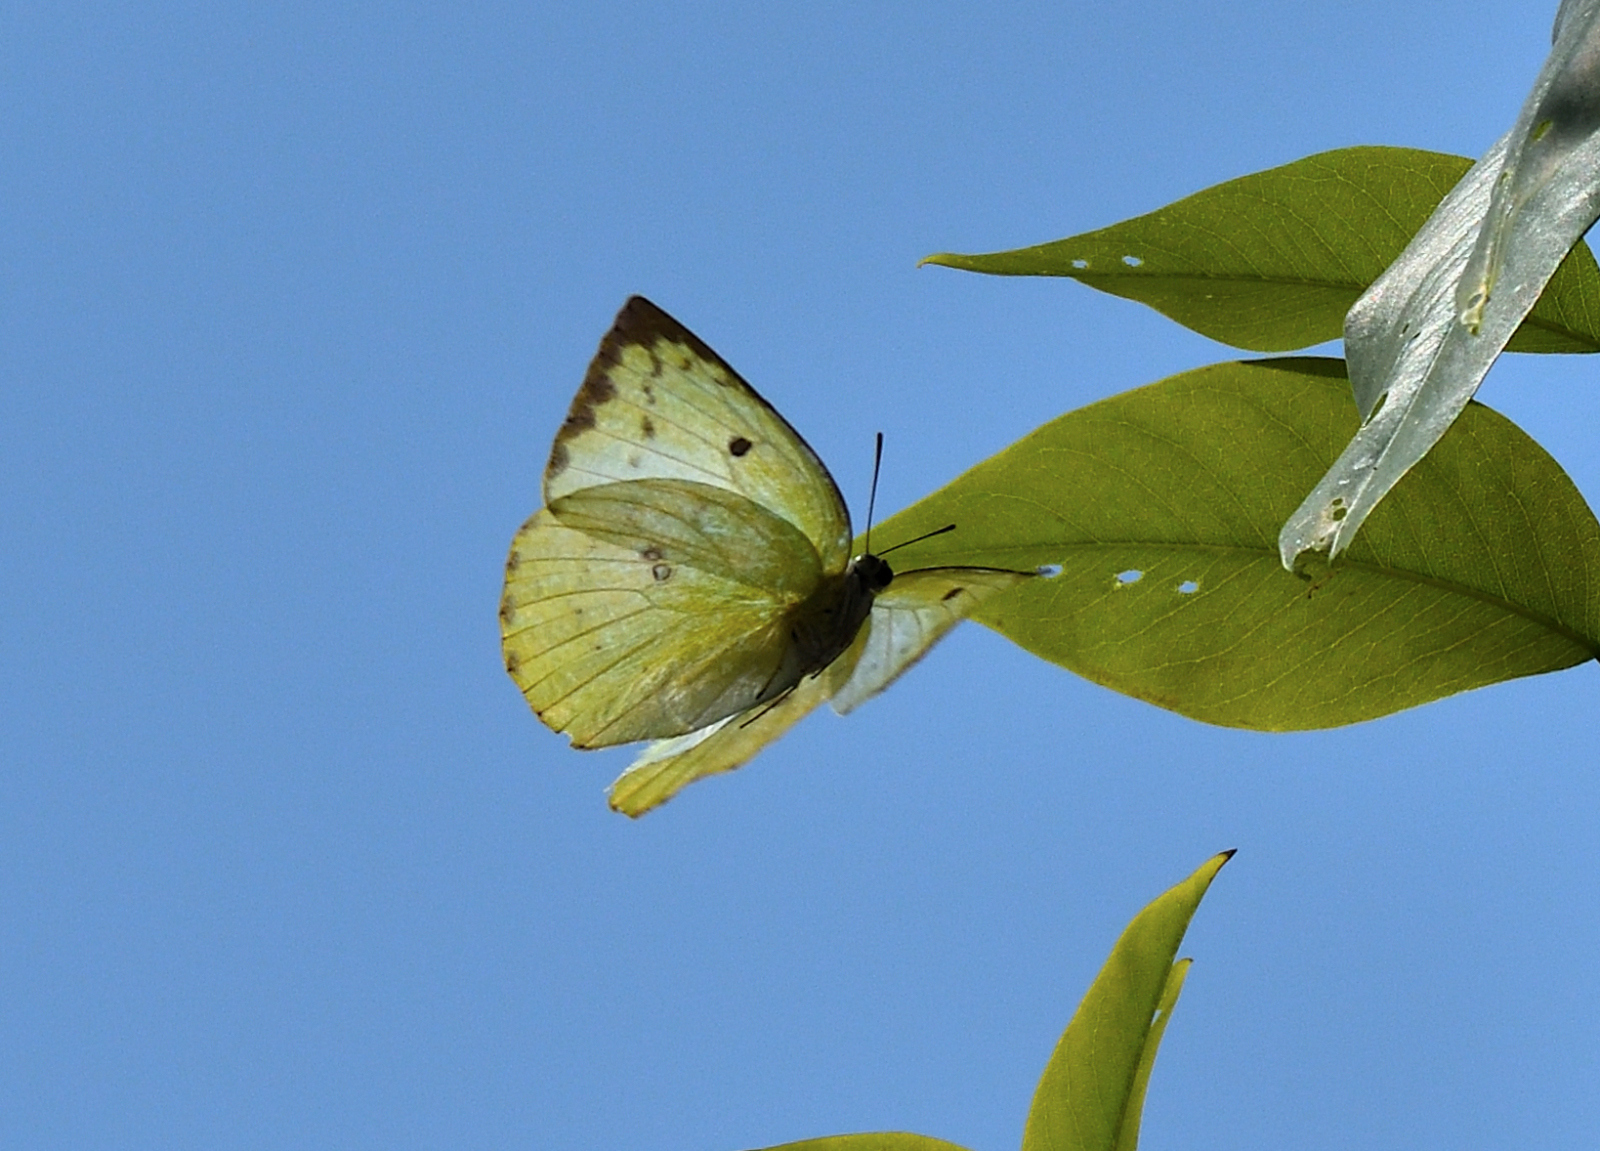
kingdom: Animalia
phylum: Arthropoda
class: Insecta
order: Lepidoptera
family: Pieridae
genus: Catopsilia
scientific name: Catopsilia pomona
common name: Common emigrant
